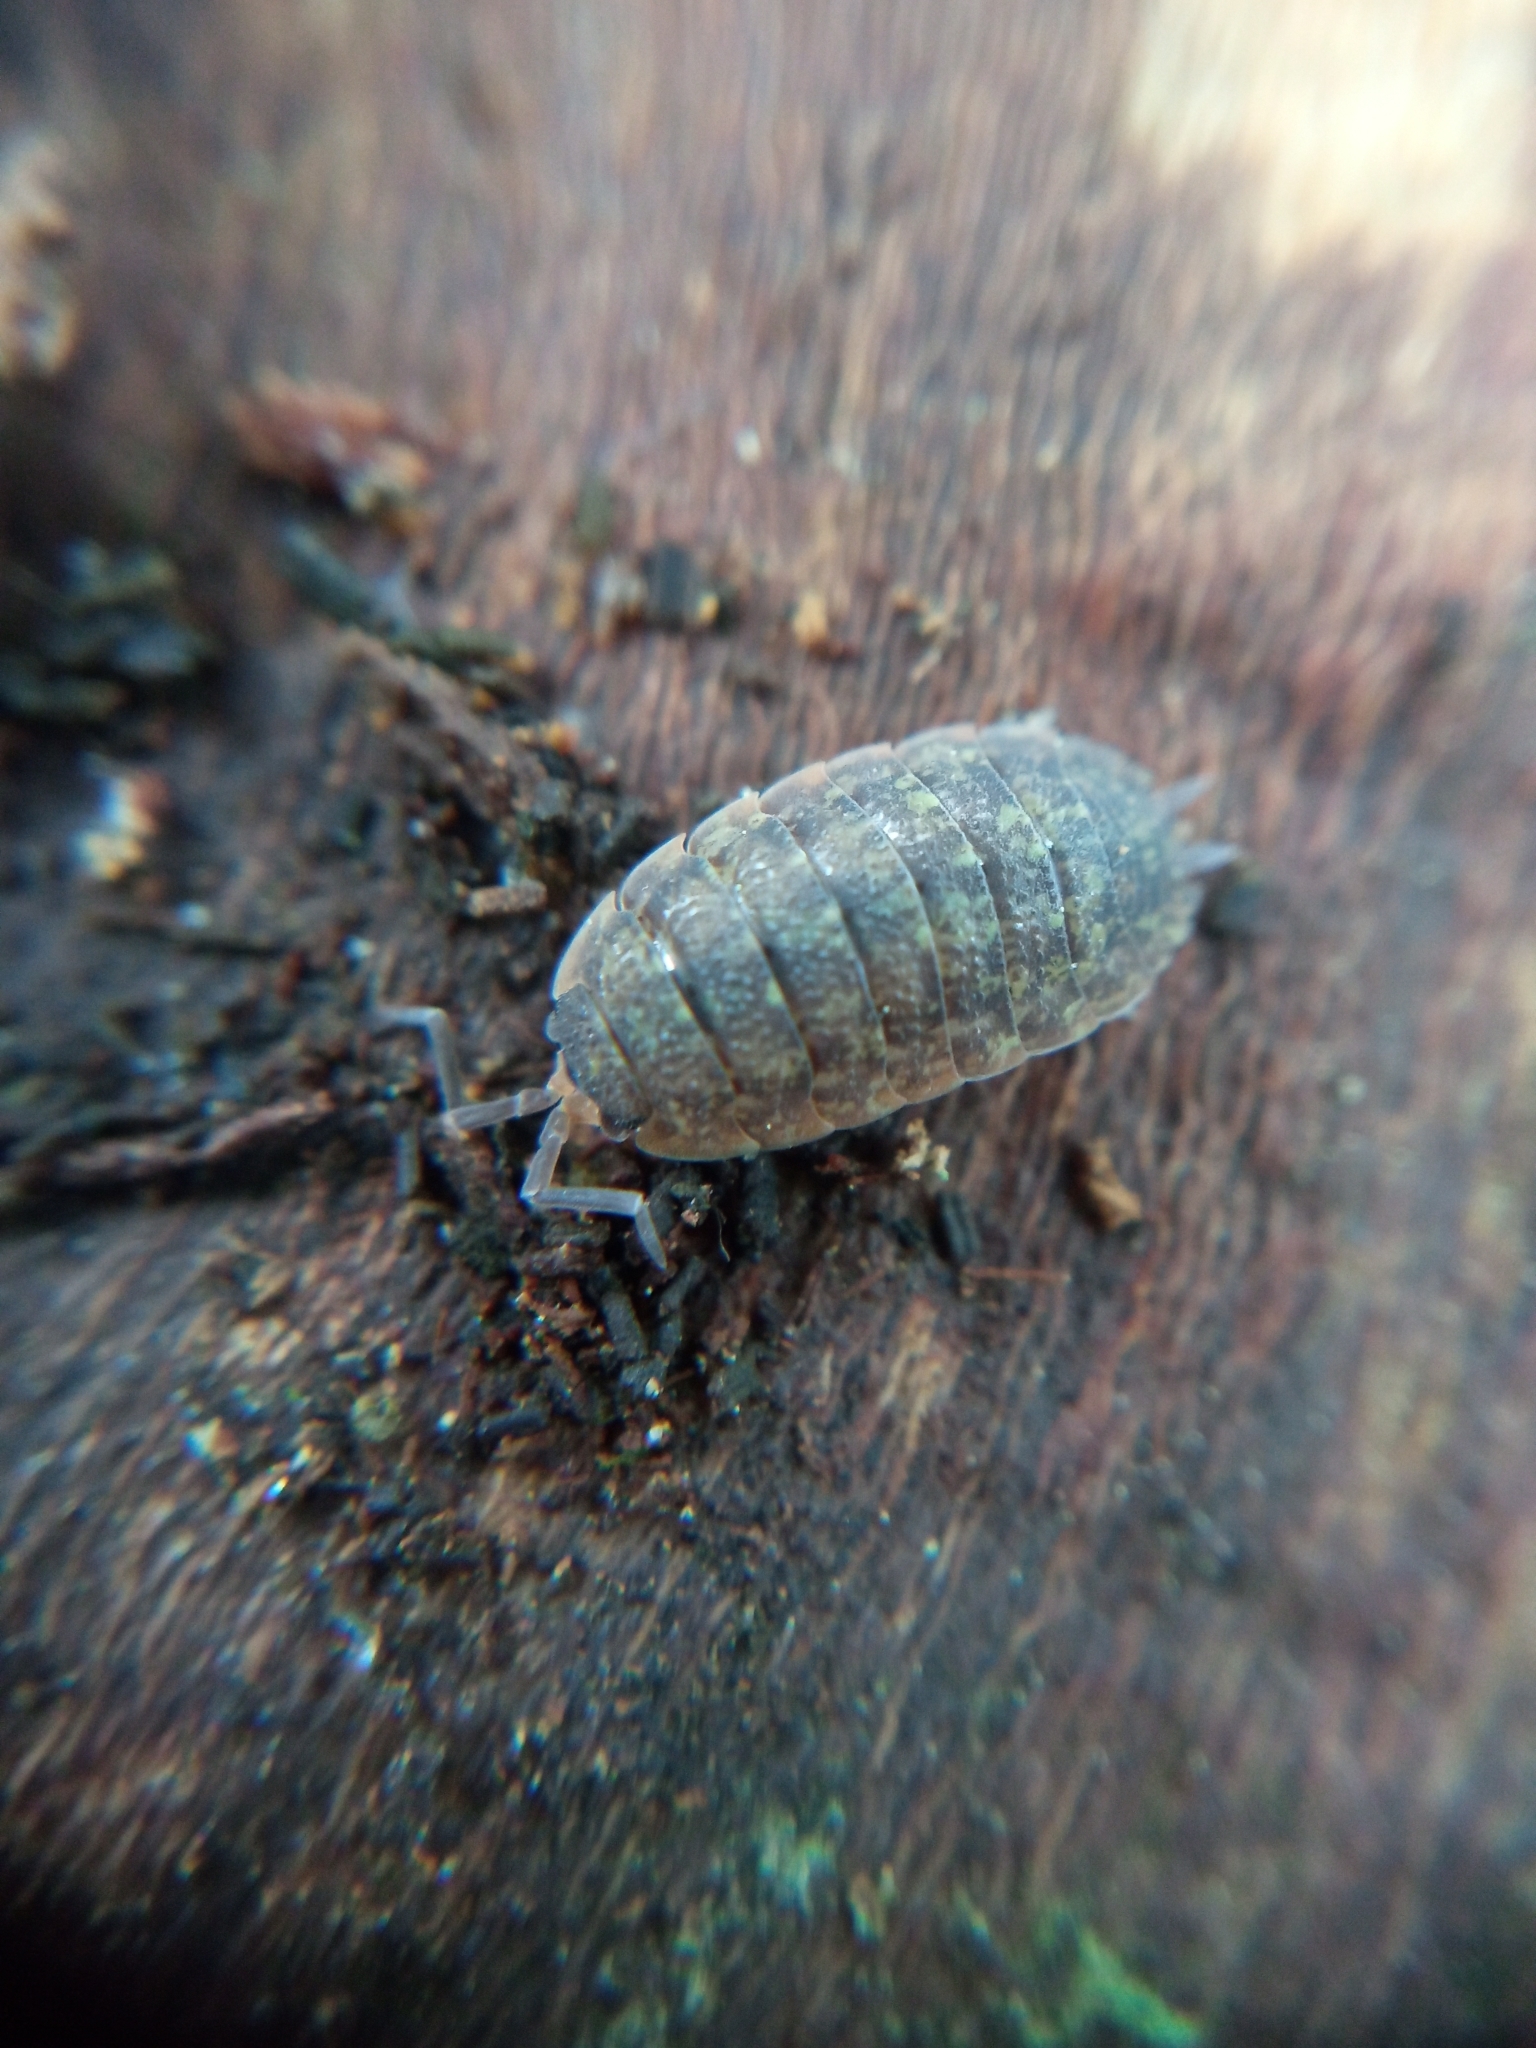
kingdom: Animalia
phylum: Arthropoda
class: Malacostraca
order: Isopoda
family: Porcellionidae
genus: Porcellio
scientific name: Porcellio scaber
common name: Common rough woodlouse
